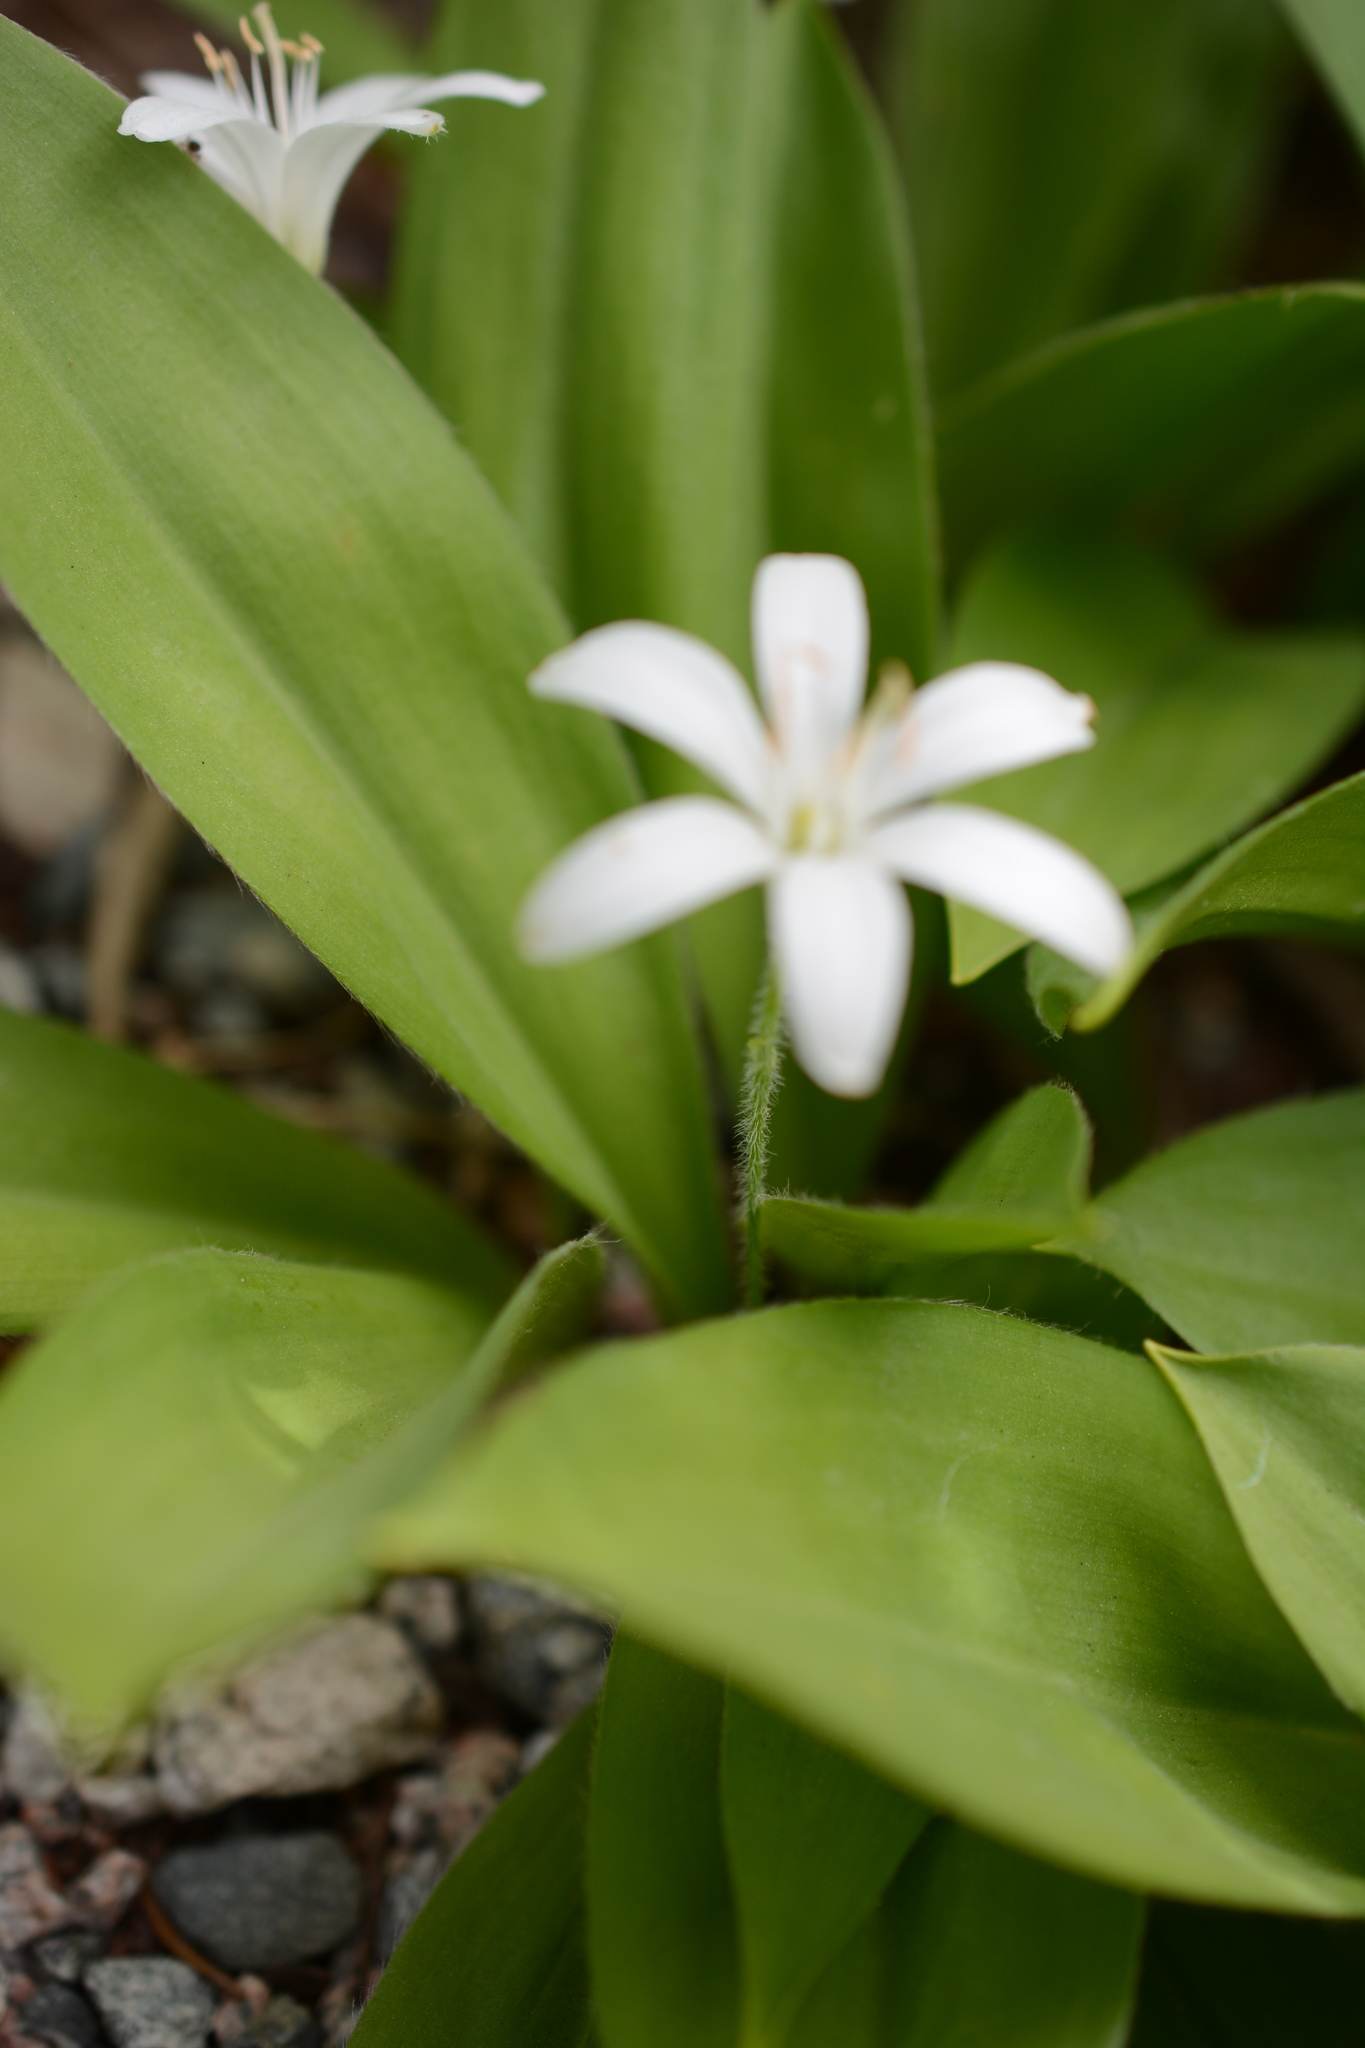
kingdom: Plantae
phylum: Tracheophyta
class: Liliopsida
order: Liliales
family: Liliaceae
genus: Clintonia
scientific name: Clintonia uniflora
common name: Queen's cup
